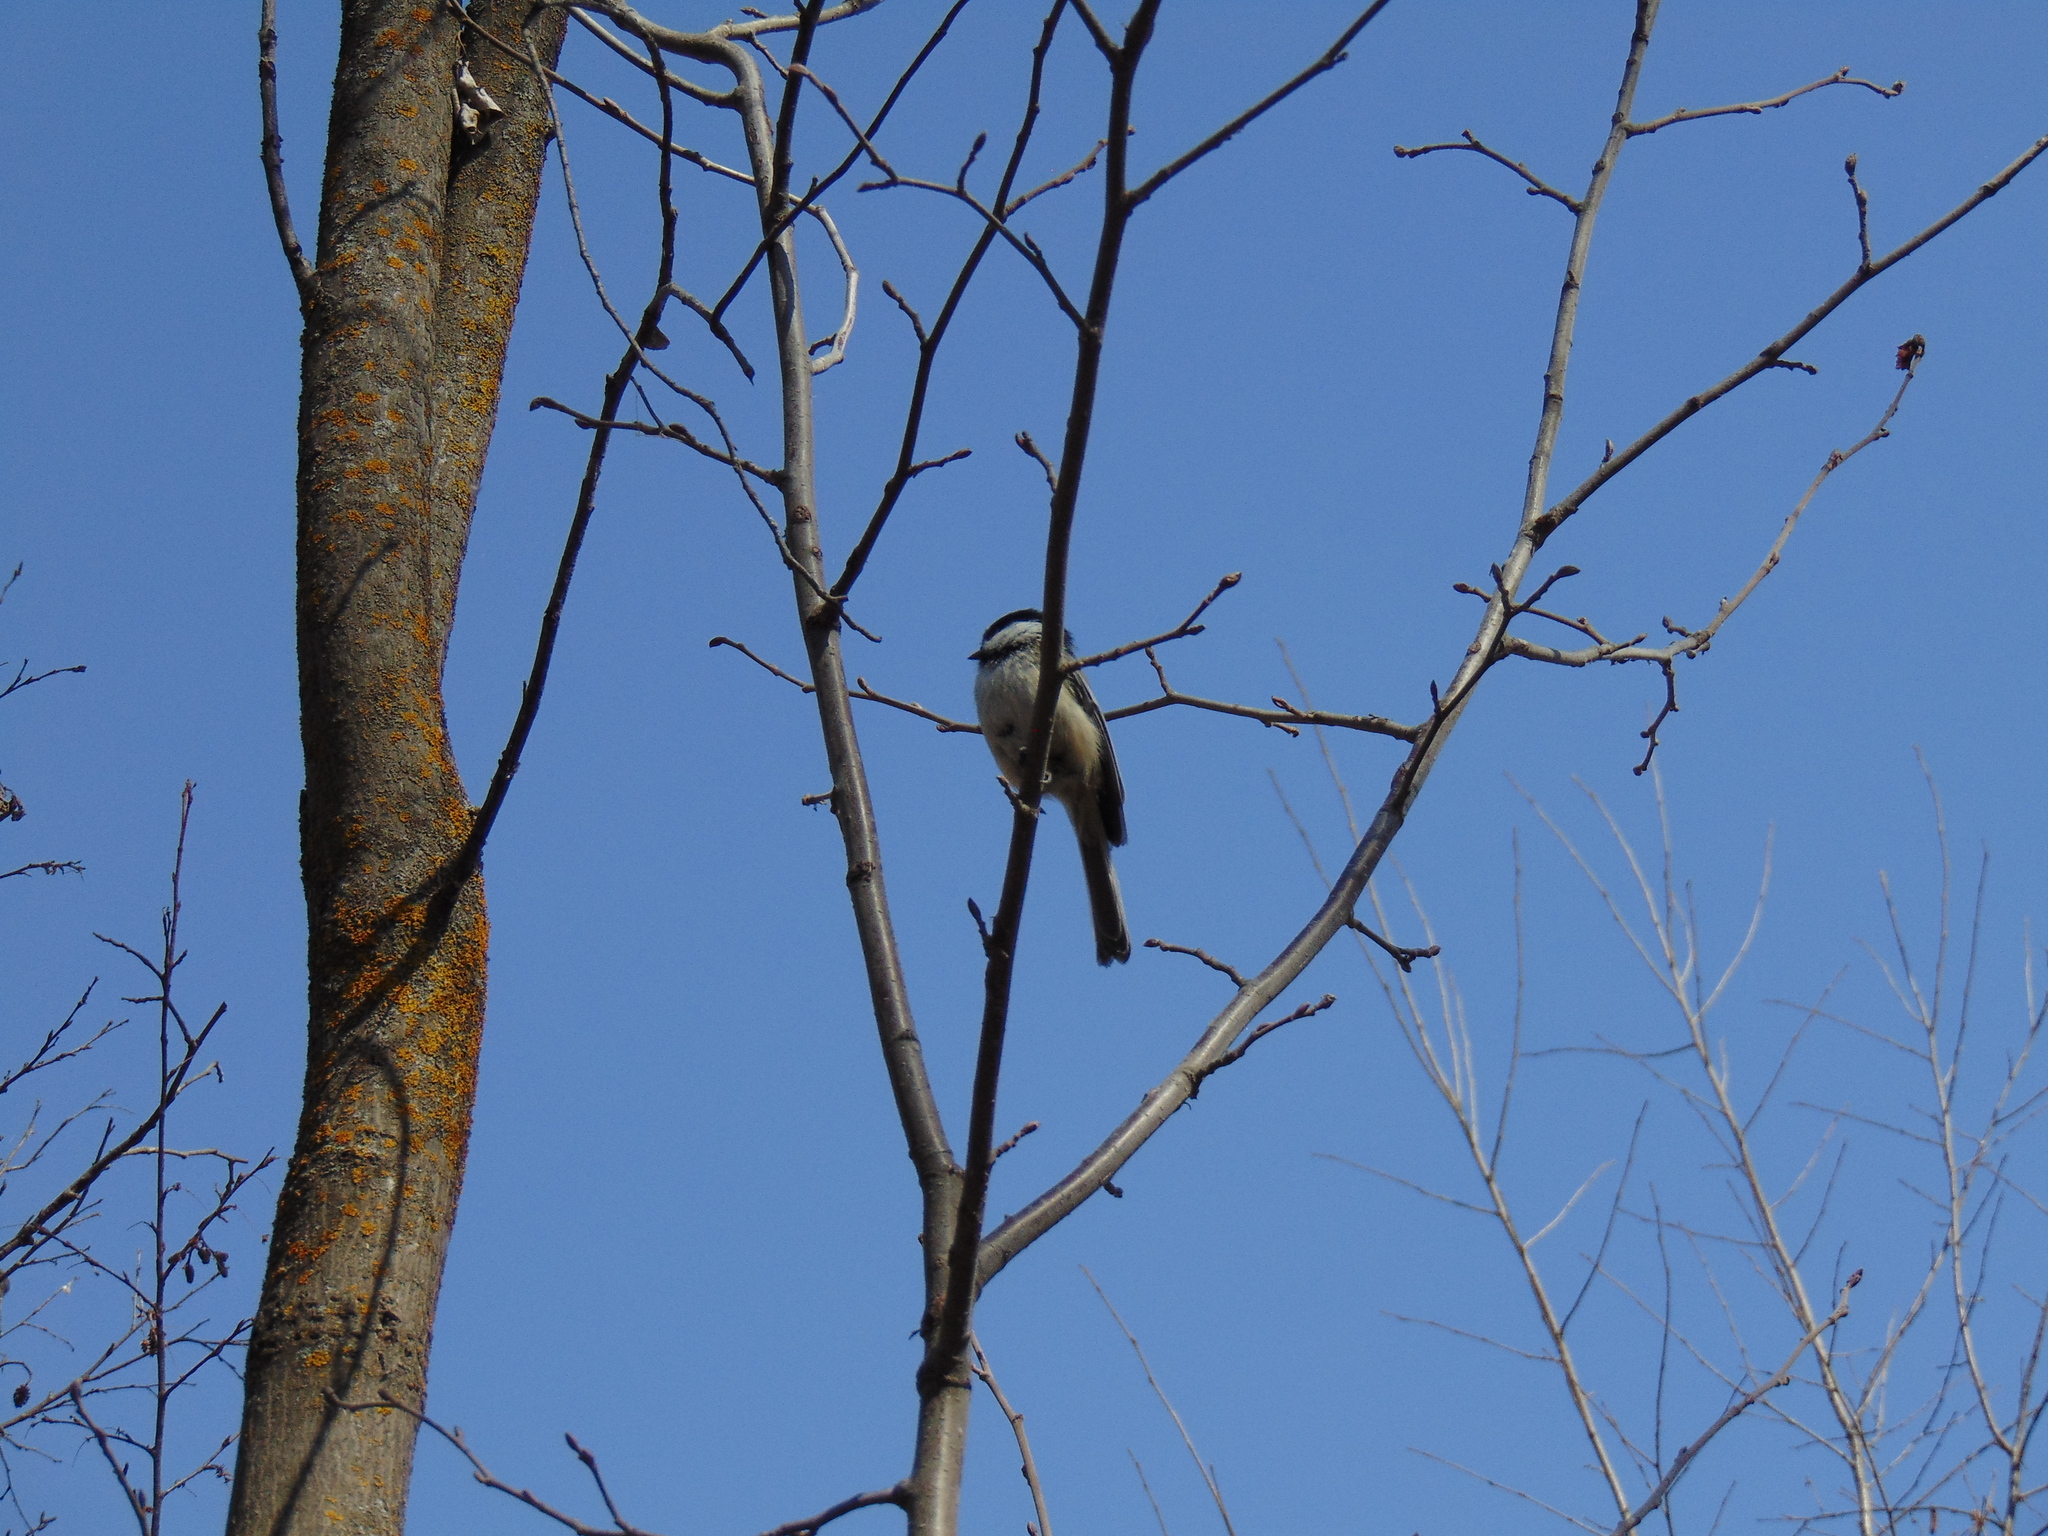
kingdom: Animalia
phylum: Chordata
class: Aves
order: Passeriformes
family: Paridae
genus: Poecile
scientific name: Poecile atricapillus
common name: Black-capped chickadee
